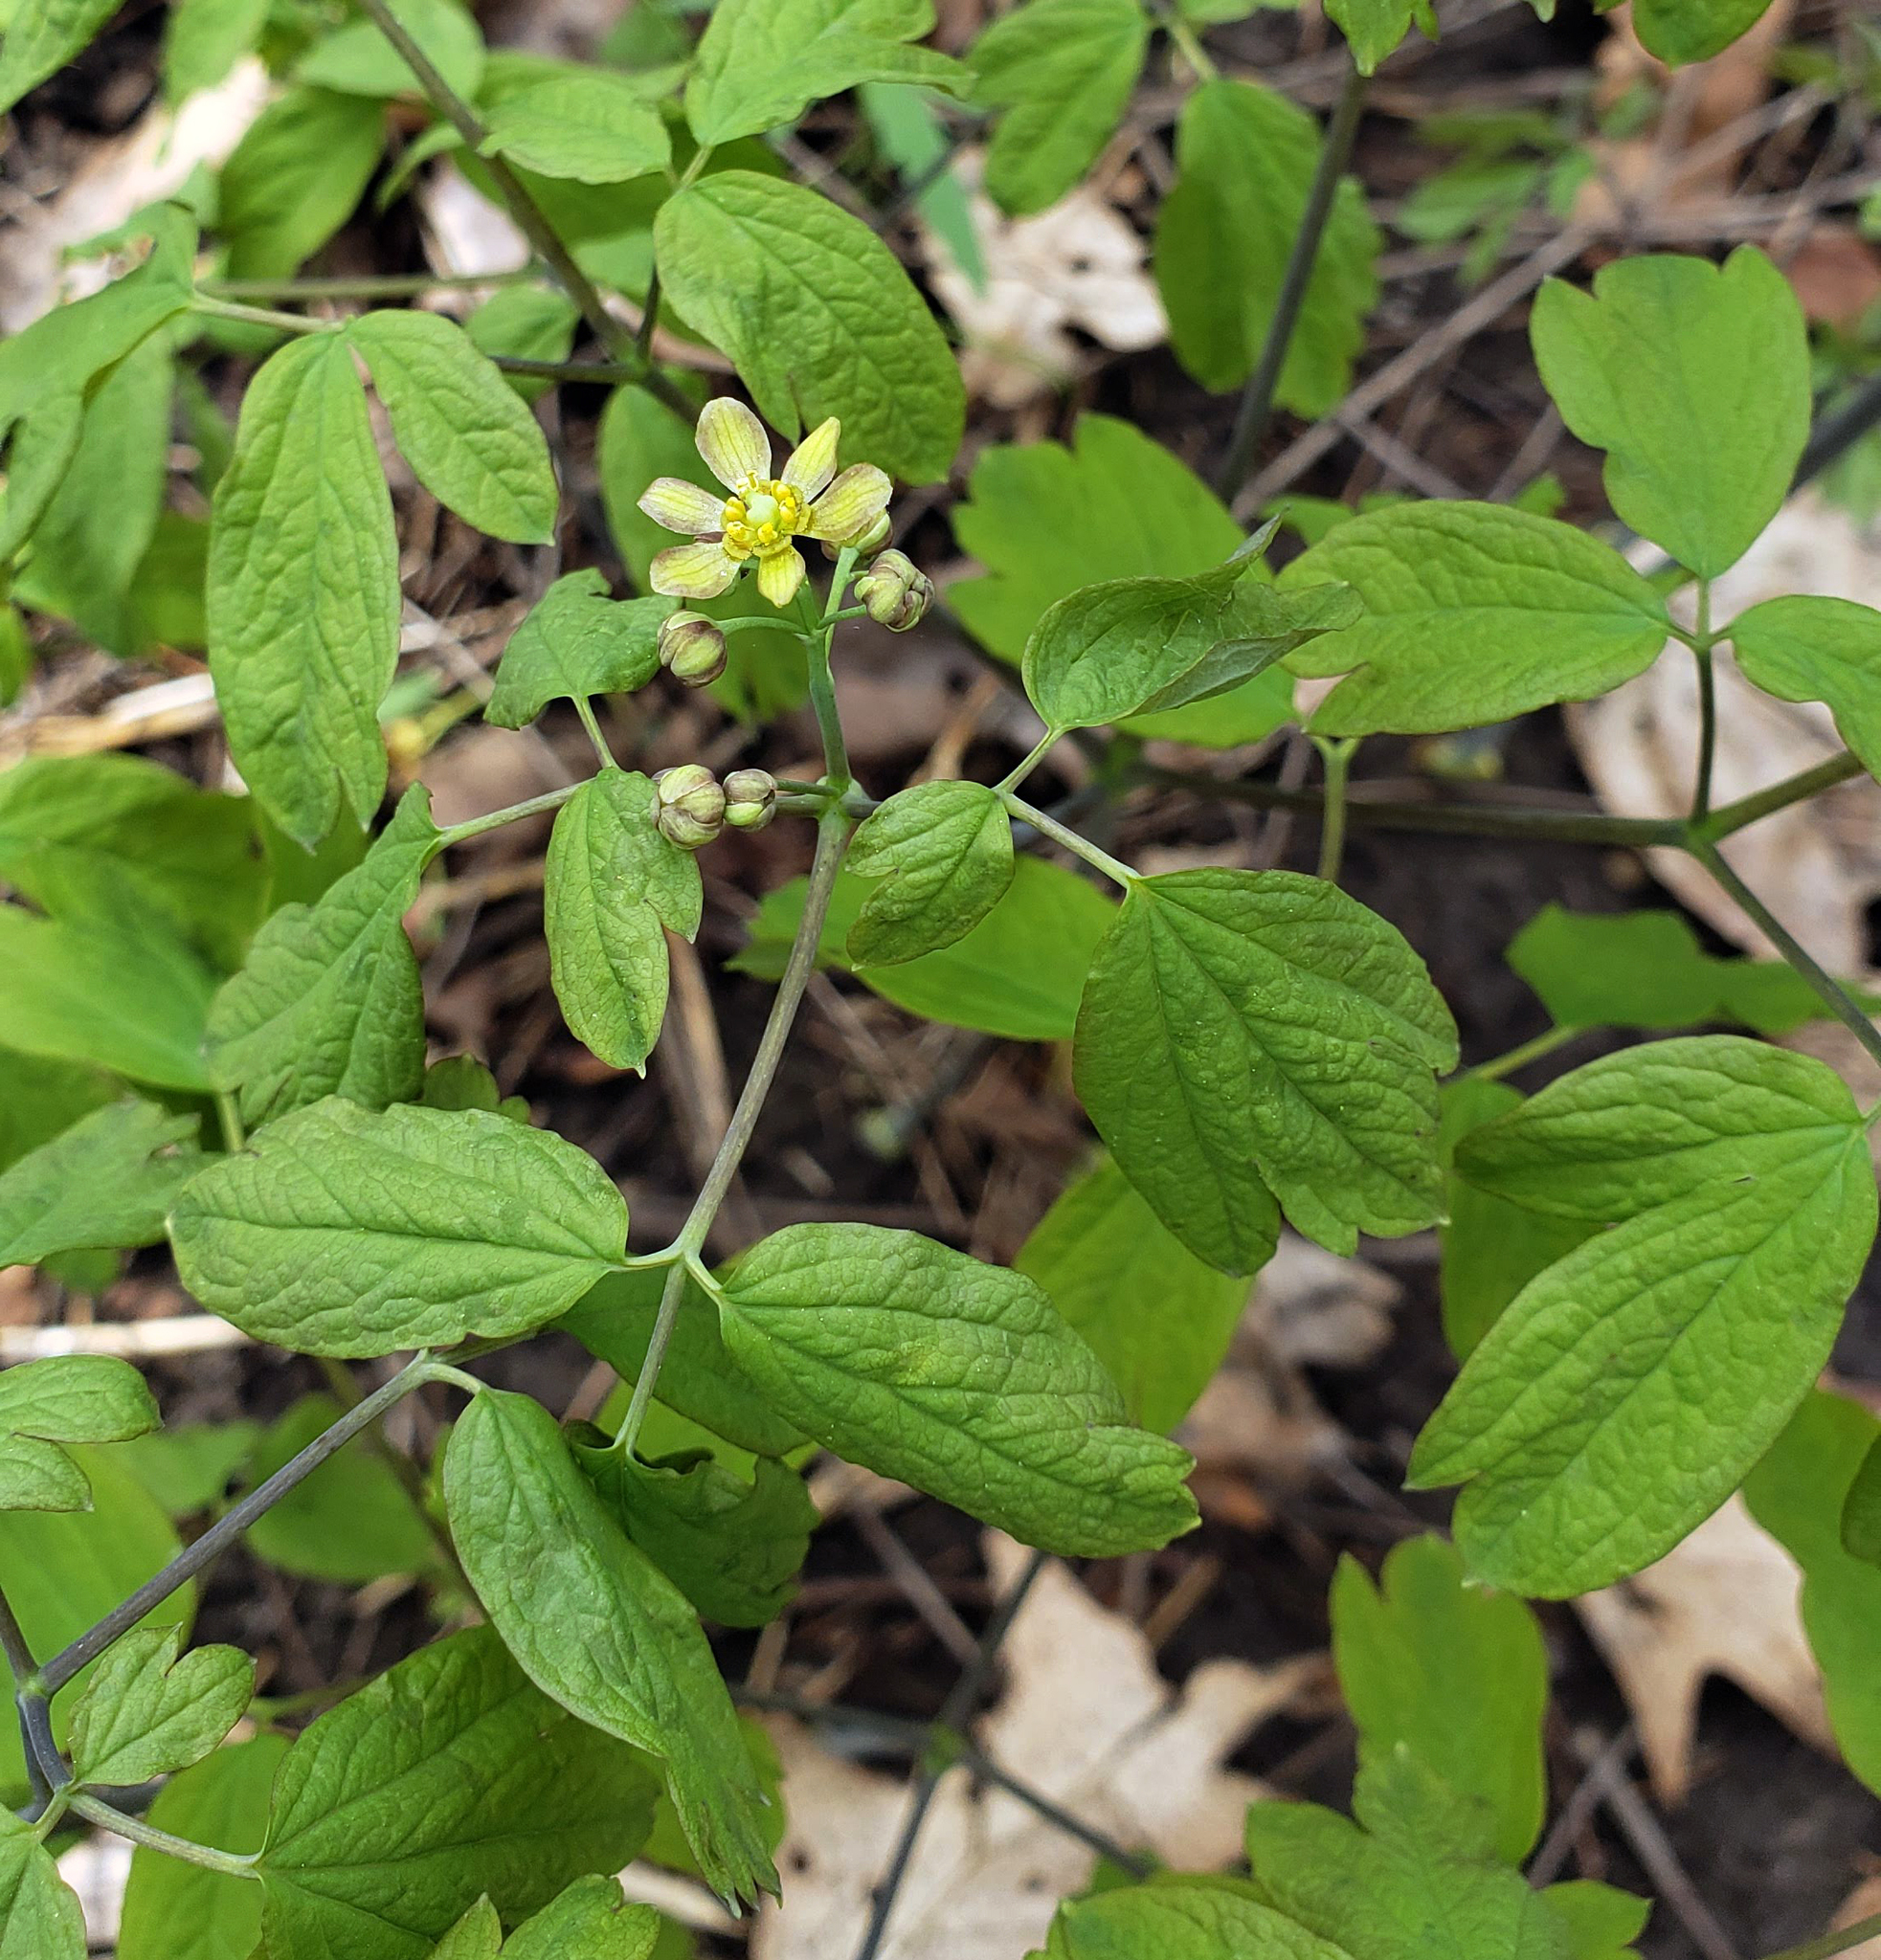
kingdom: Plantae
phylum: Tracheophyta
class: Magnoliopsida
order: Ranunculales
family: Berberidaceae
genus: Caulophyllum
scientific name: Caulophyllum thalictroides
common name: Blue cohosh
